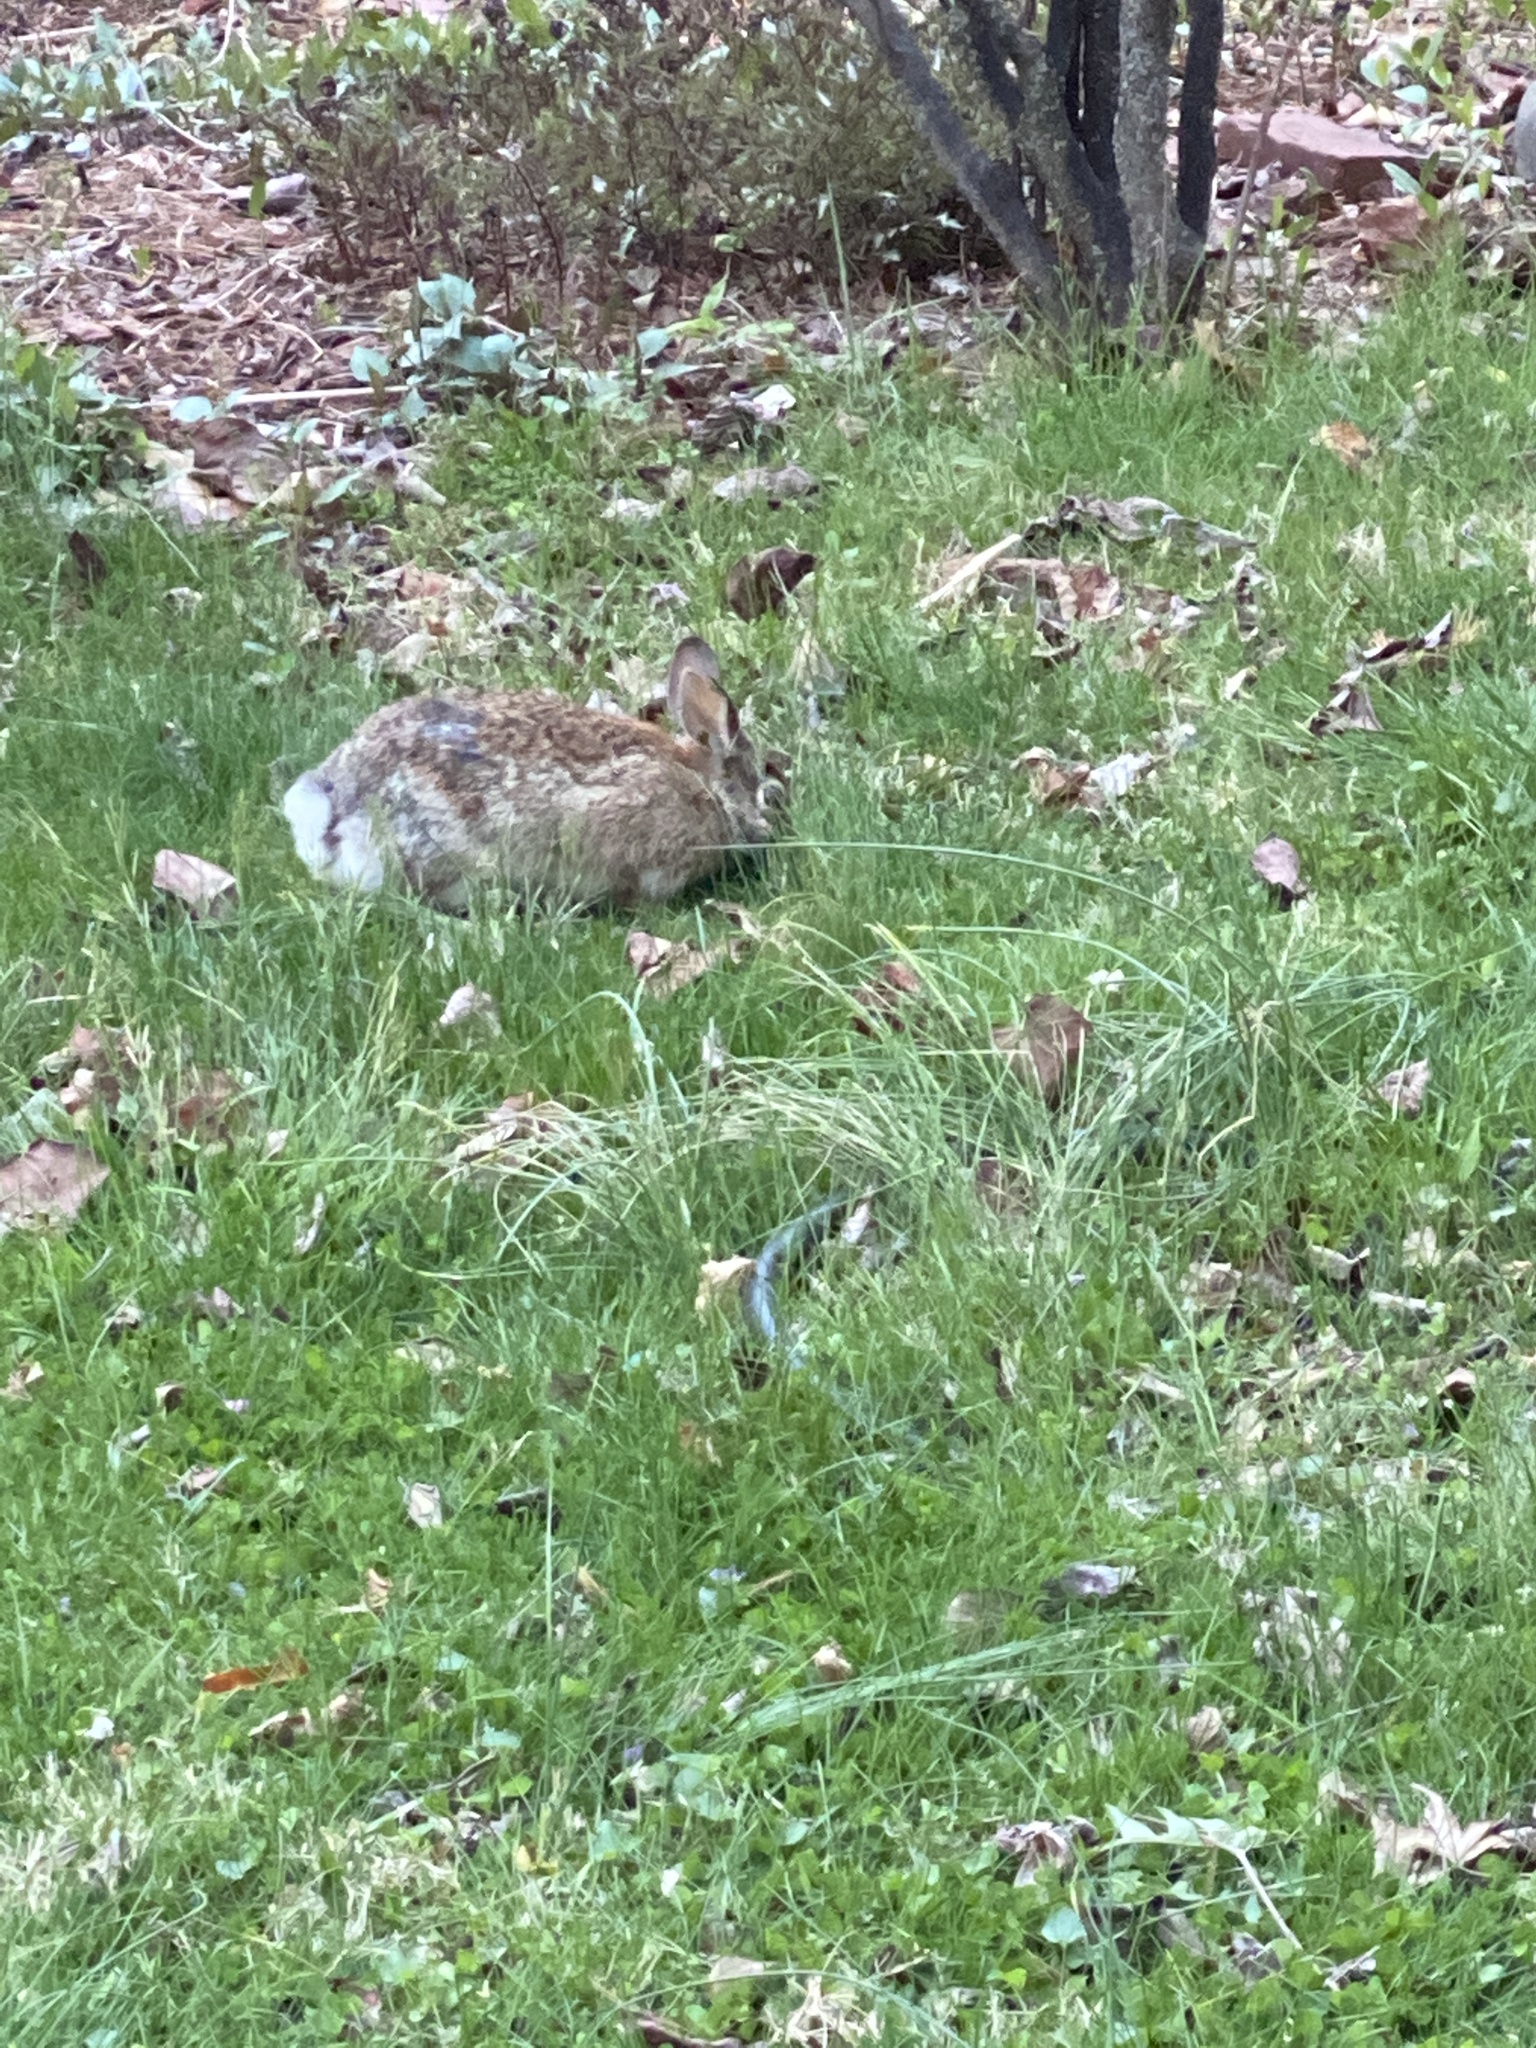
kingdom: Animalia
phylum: Chordata
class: Mammalia
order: Lagomorpha
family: Leporidae
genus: Sylvilagus
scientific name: Sylvilagus floridanus
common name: Eastern cottontail
